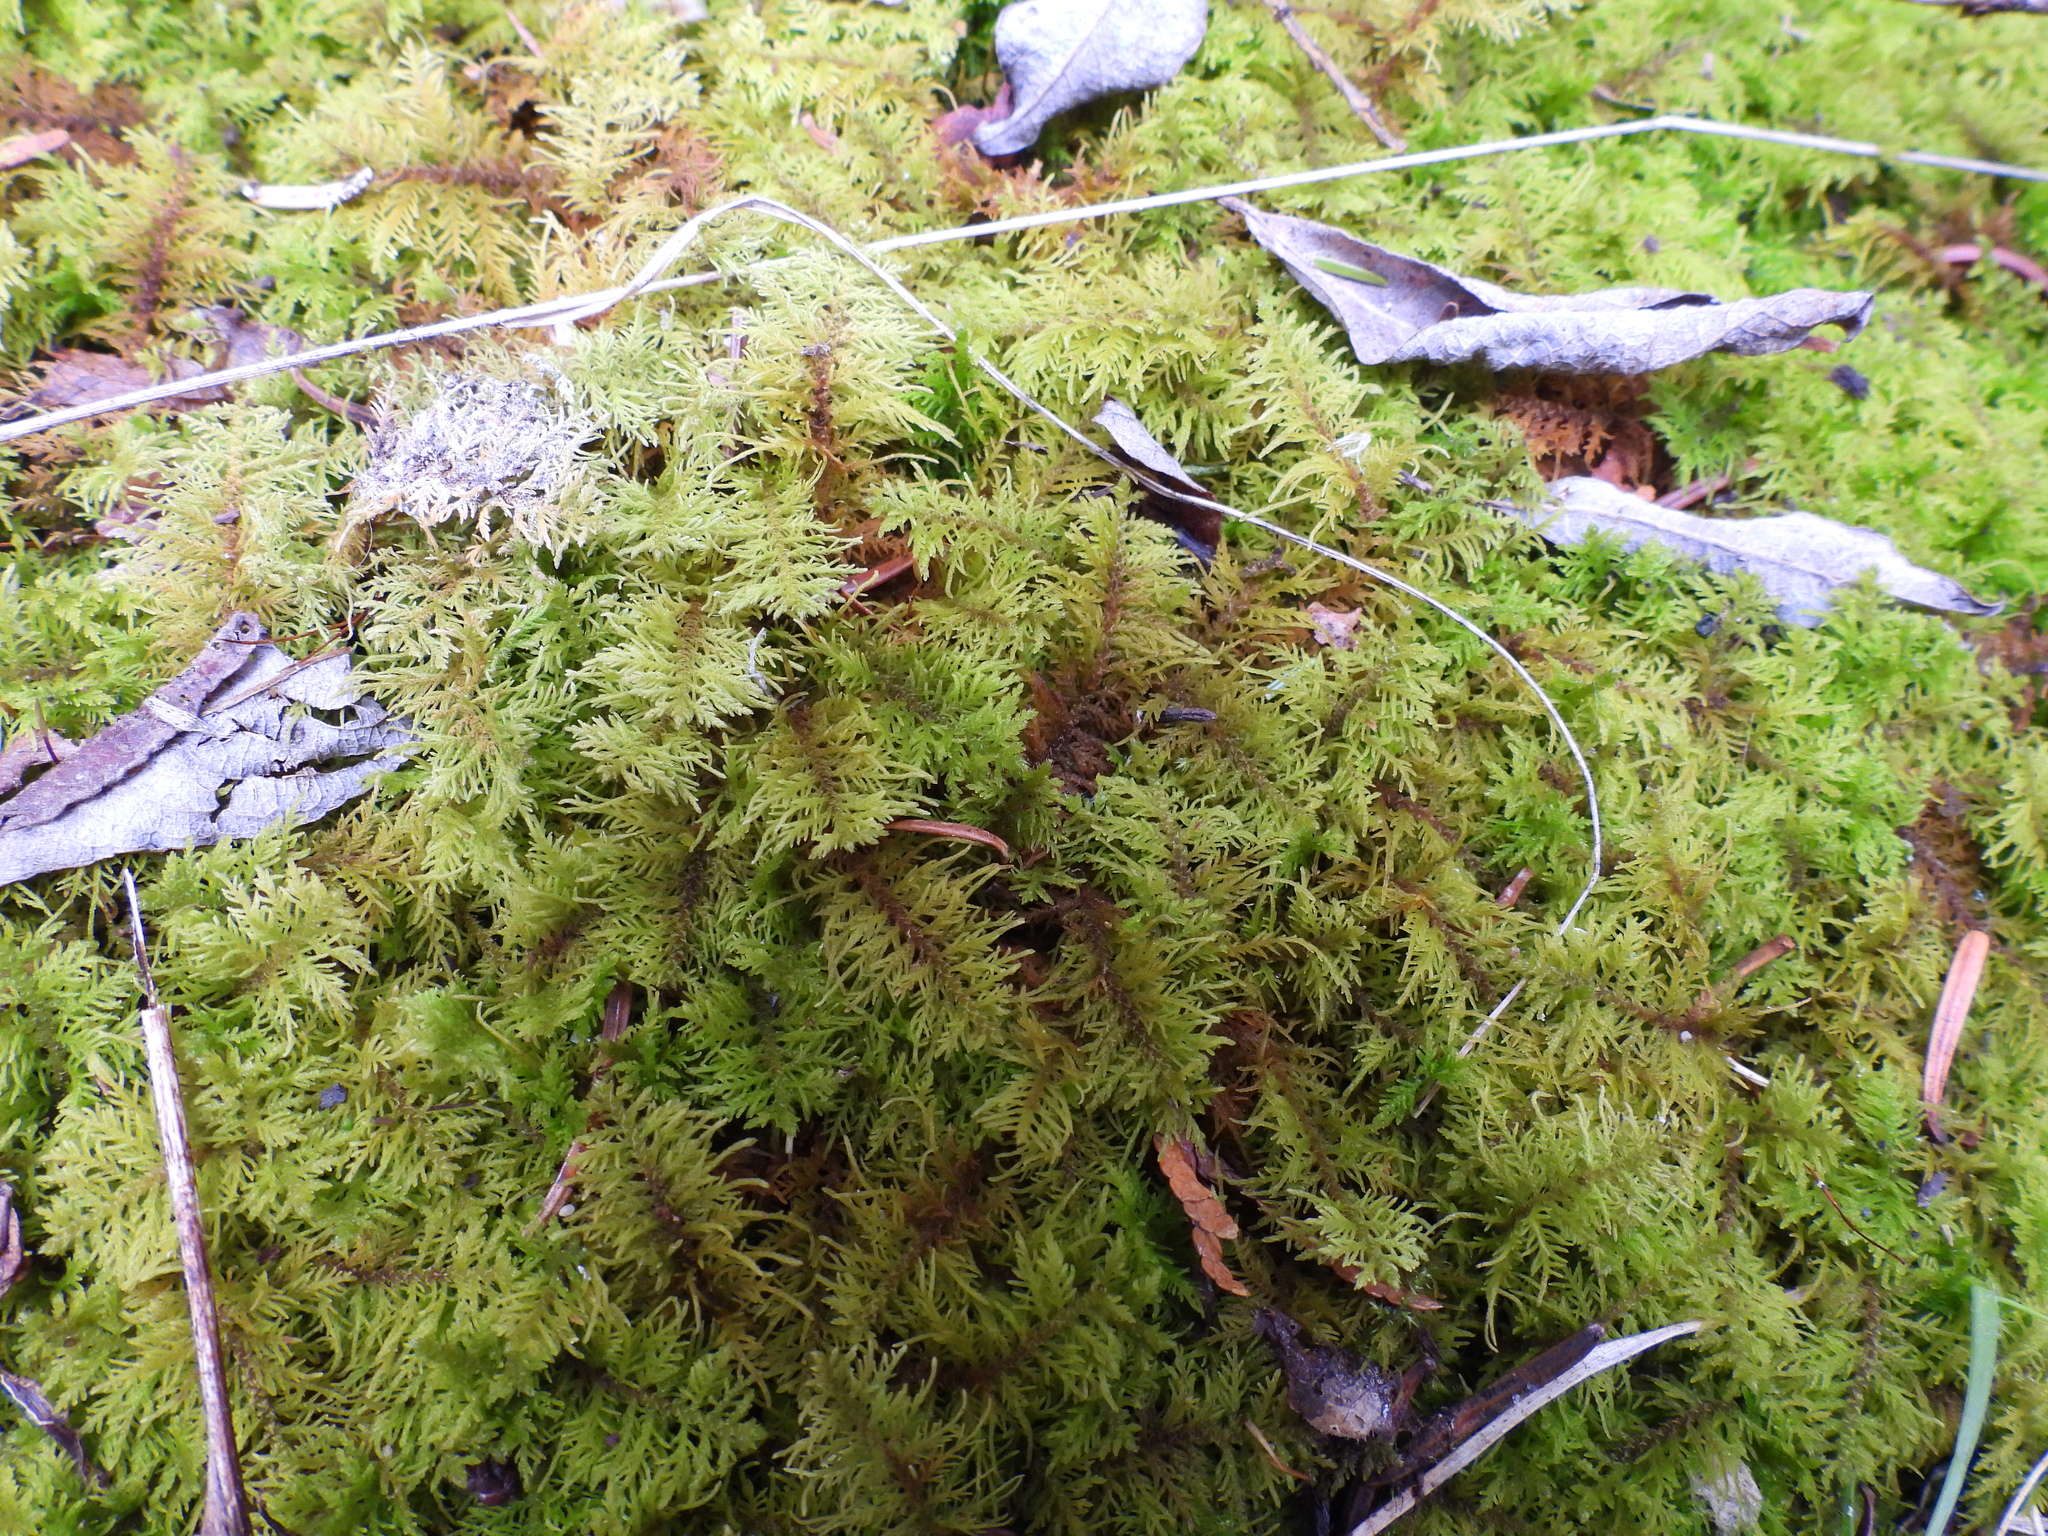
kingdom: Plantae
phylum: Bryophyta
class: Bryopsida
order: Hypnales
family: Hylocomiaceae
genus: Hylocomium
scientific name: Hylocomium splendens
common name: Stairstep moss
